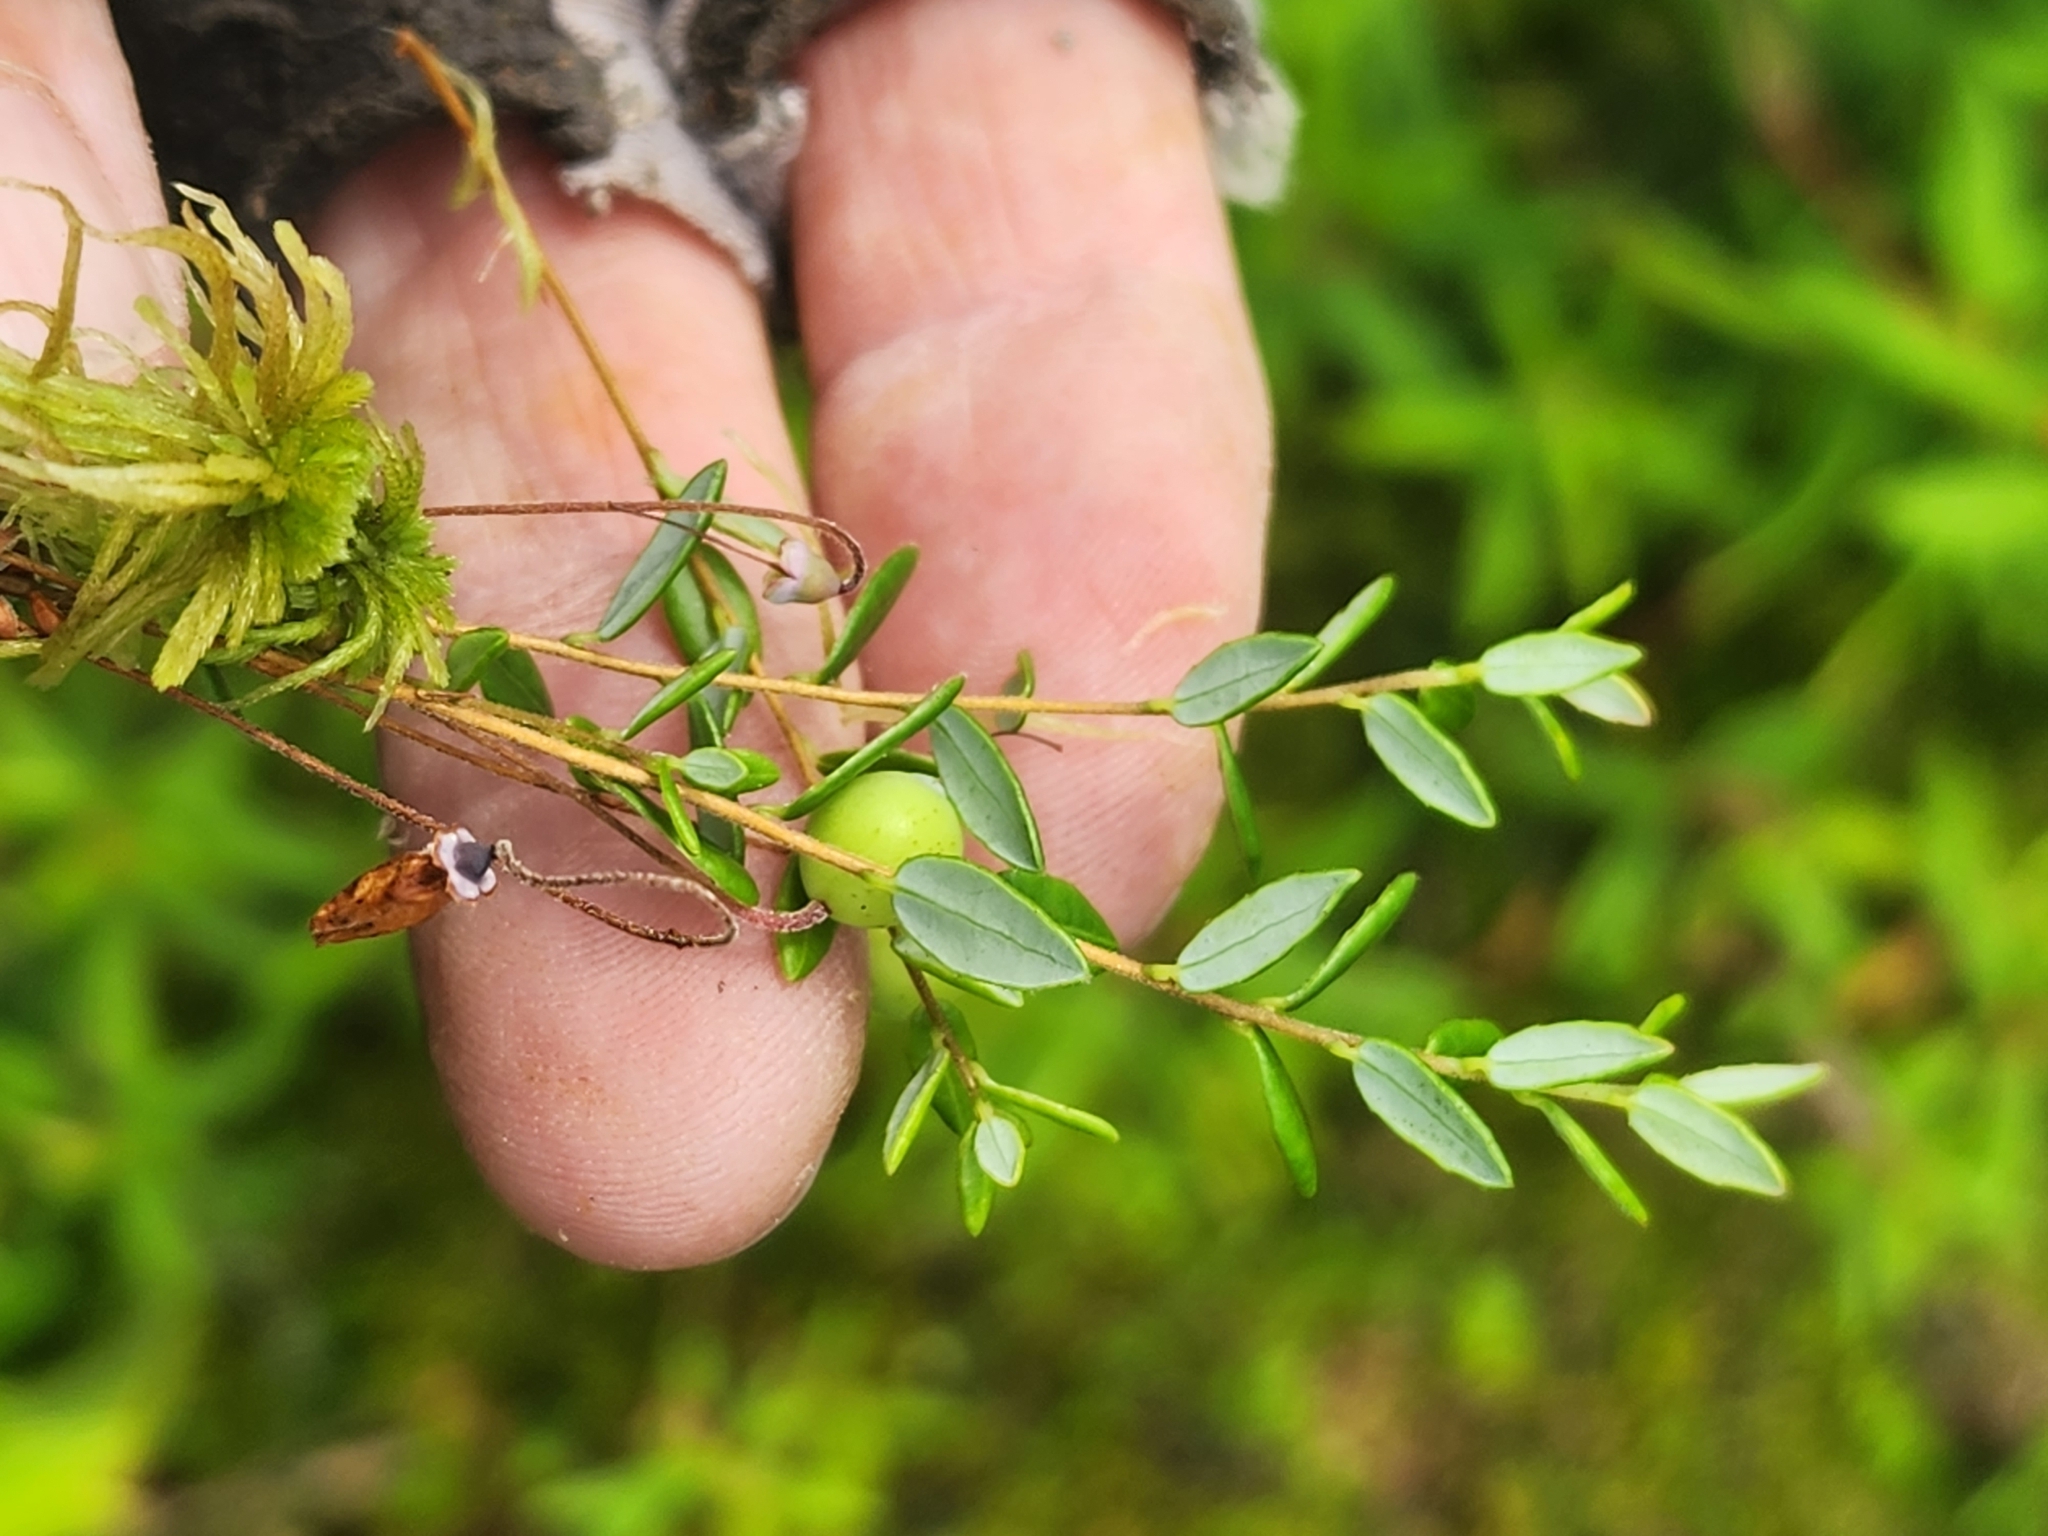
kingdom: Plantae
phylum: Tracheophyta
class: Magnoliopsida
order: Ericales
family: Ericaceae
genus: Vaccinium
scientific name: Vaccinium oxycoccos
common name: Cranberry
